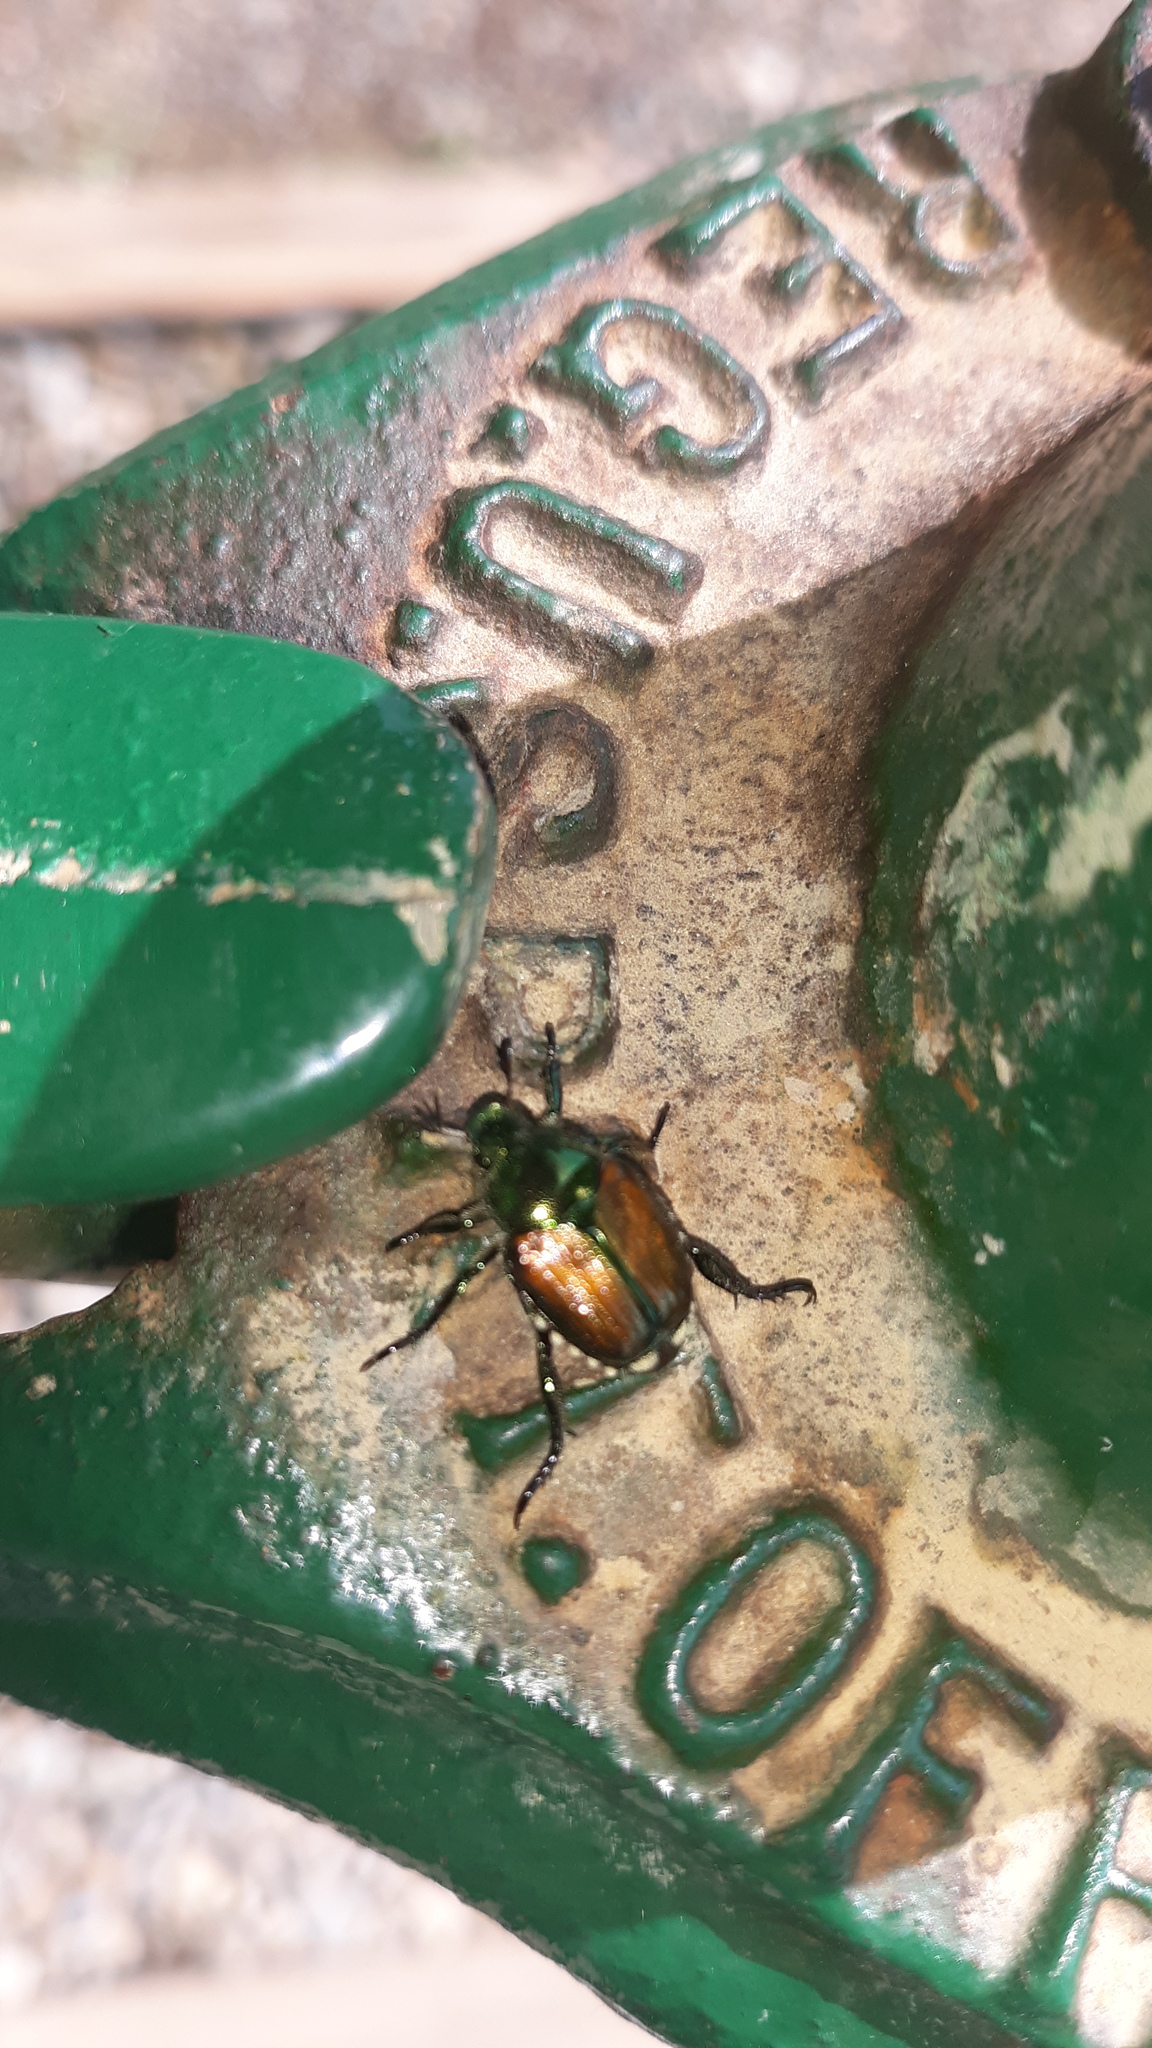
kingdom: Animalia
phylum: Arthropoda
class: Insecta
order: Coleoptera
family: Scarabaeidae
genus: Popillia
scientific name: Popillia japonica
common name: Japanese beetle
